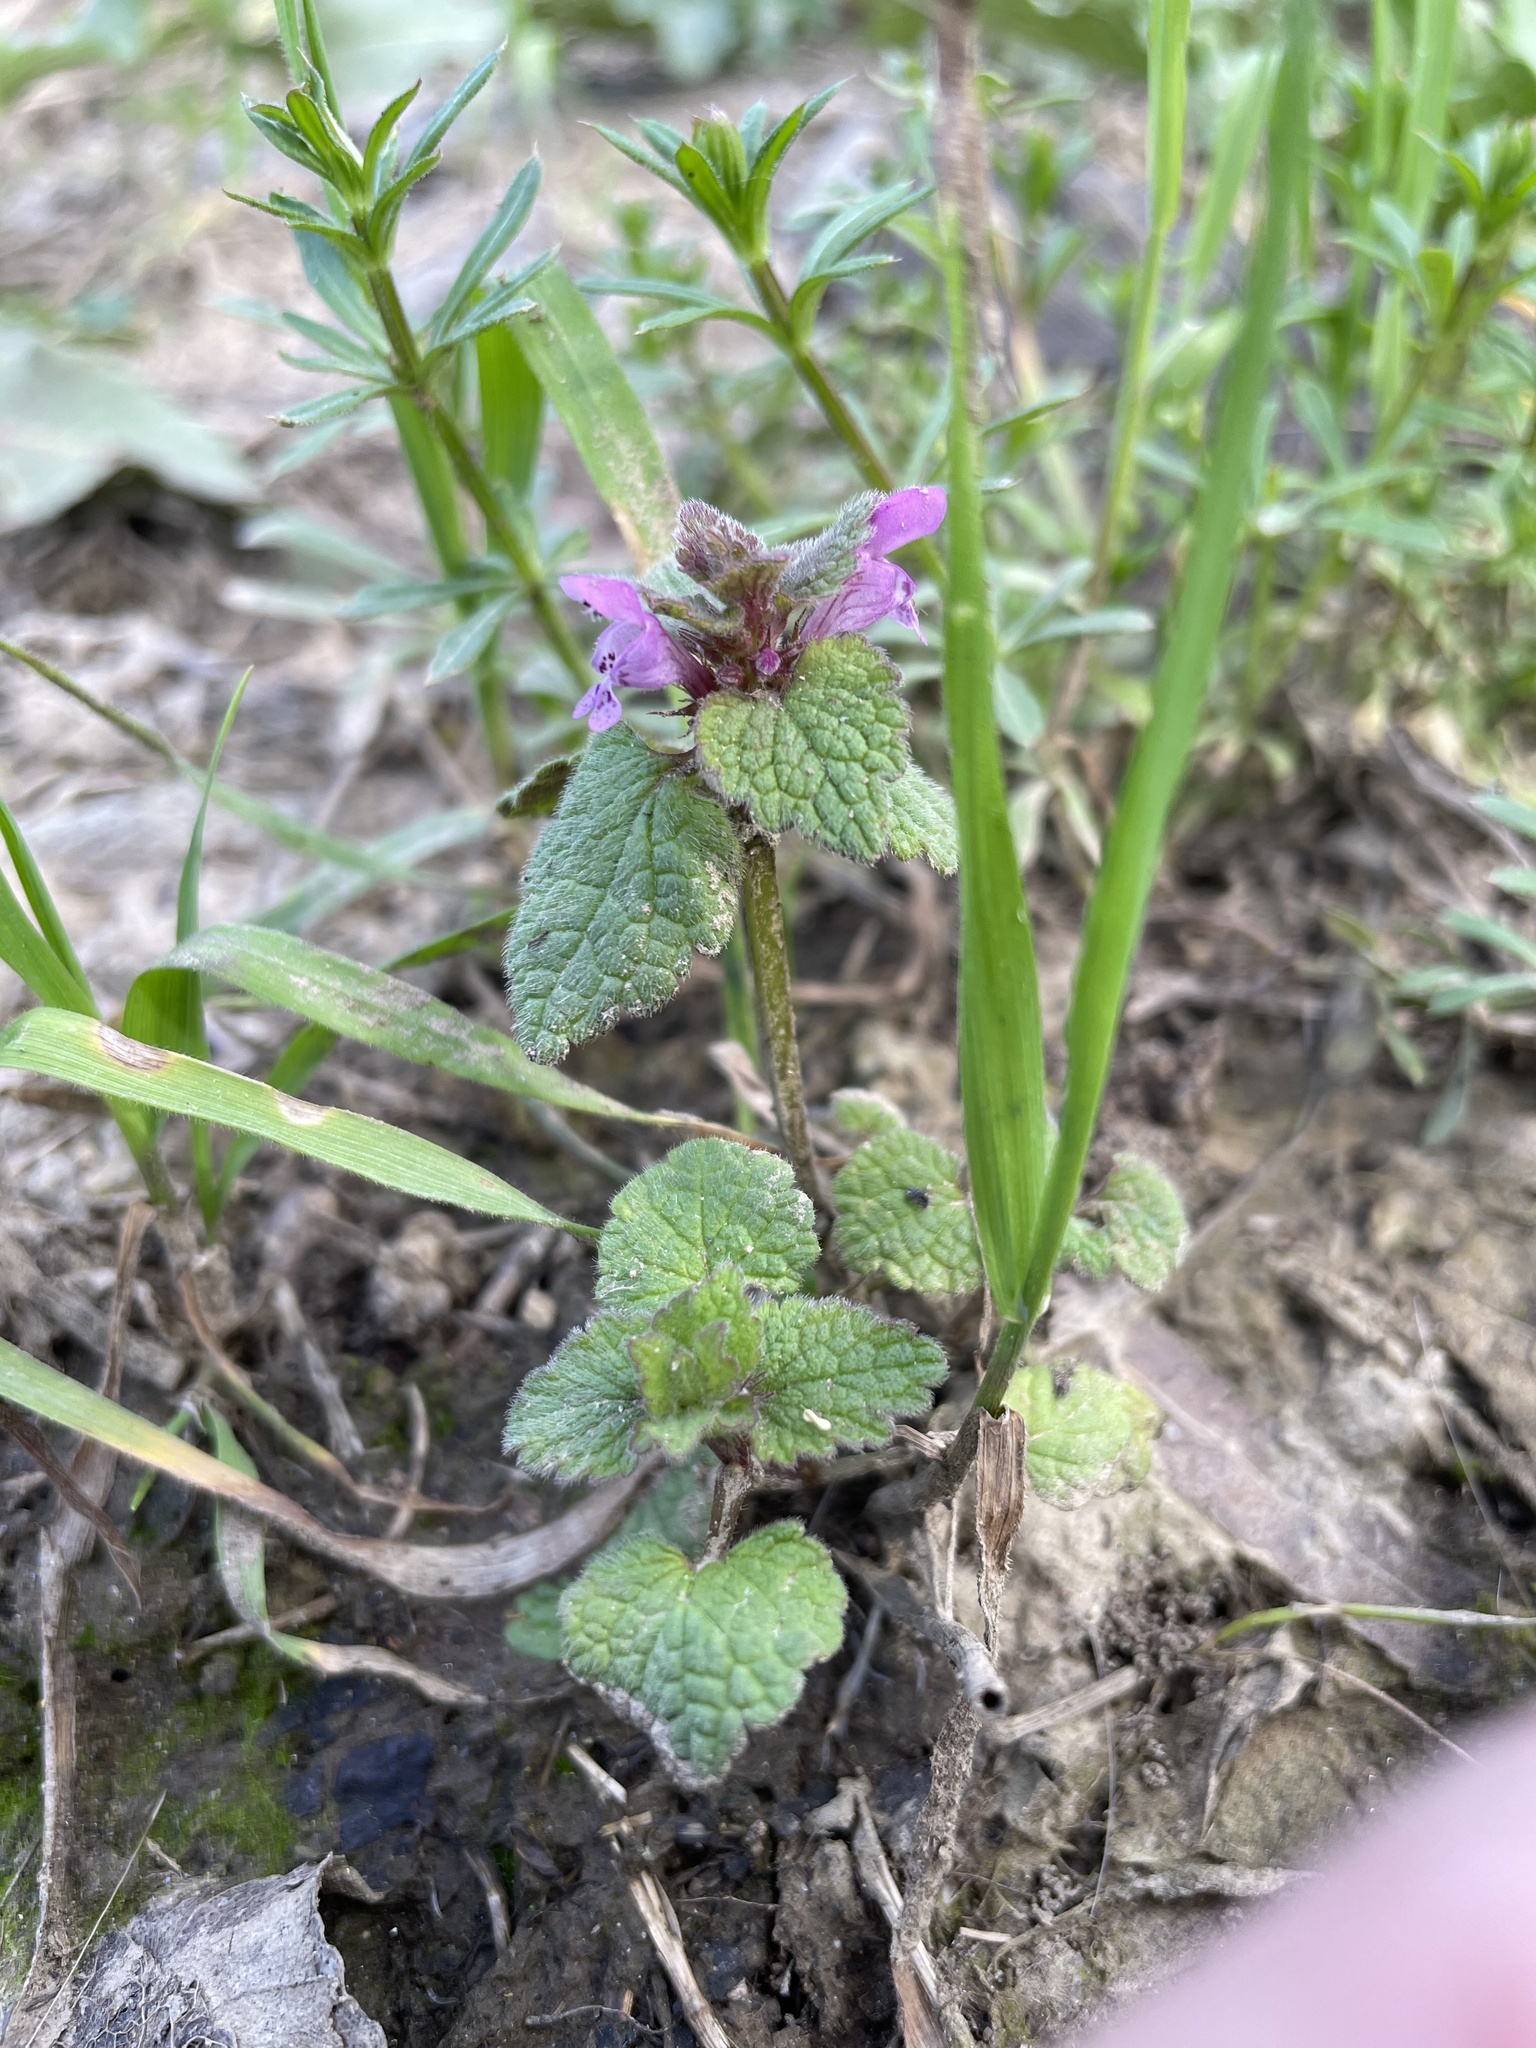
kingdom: Plantae
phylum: Tracheophyta
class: Magnoliopsida
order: Lamiales
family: Lamiaceae
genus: Lamium
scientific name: Lamium purpureum
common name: Red dead-nettle
